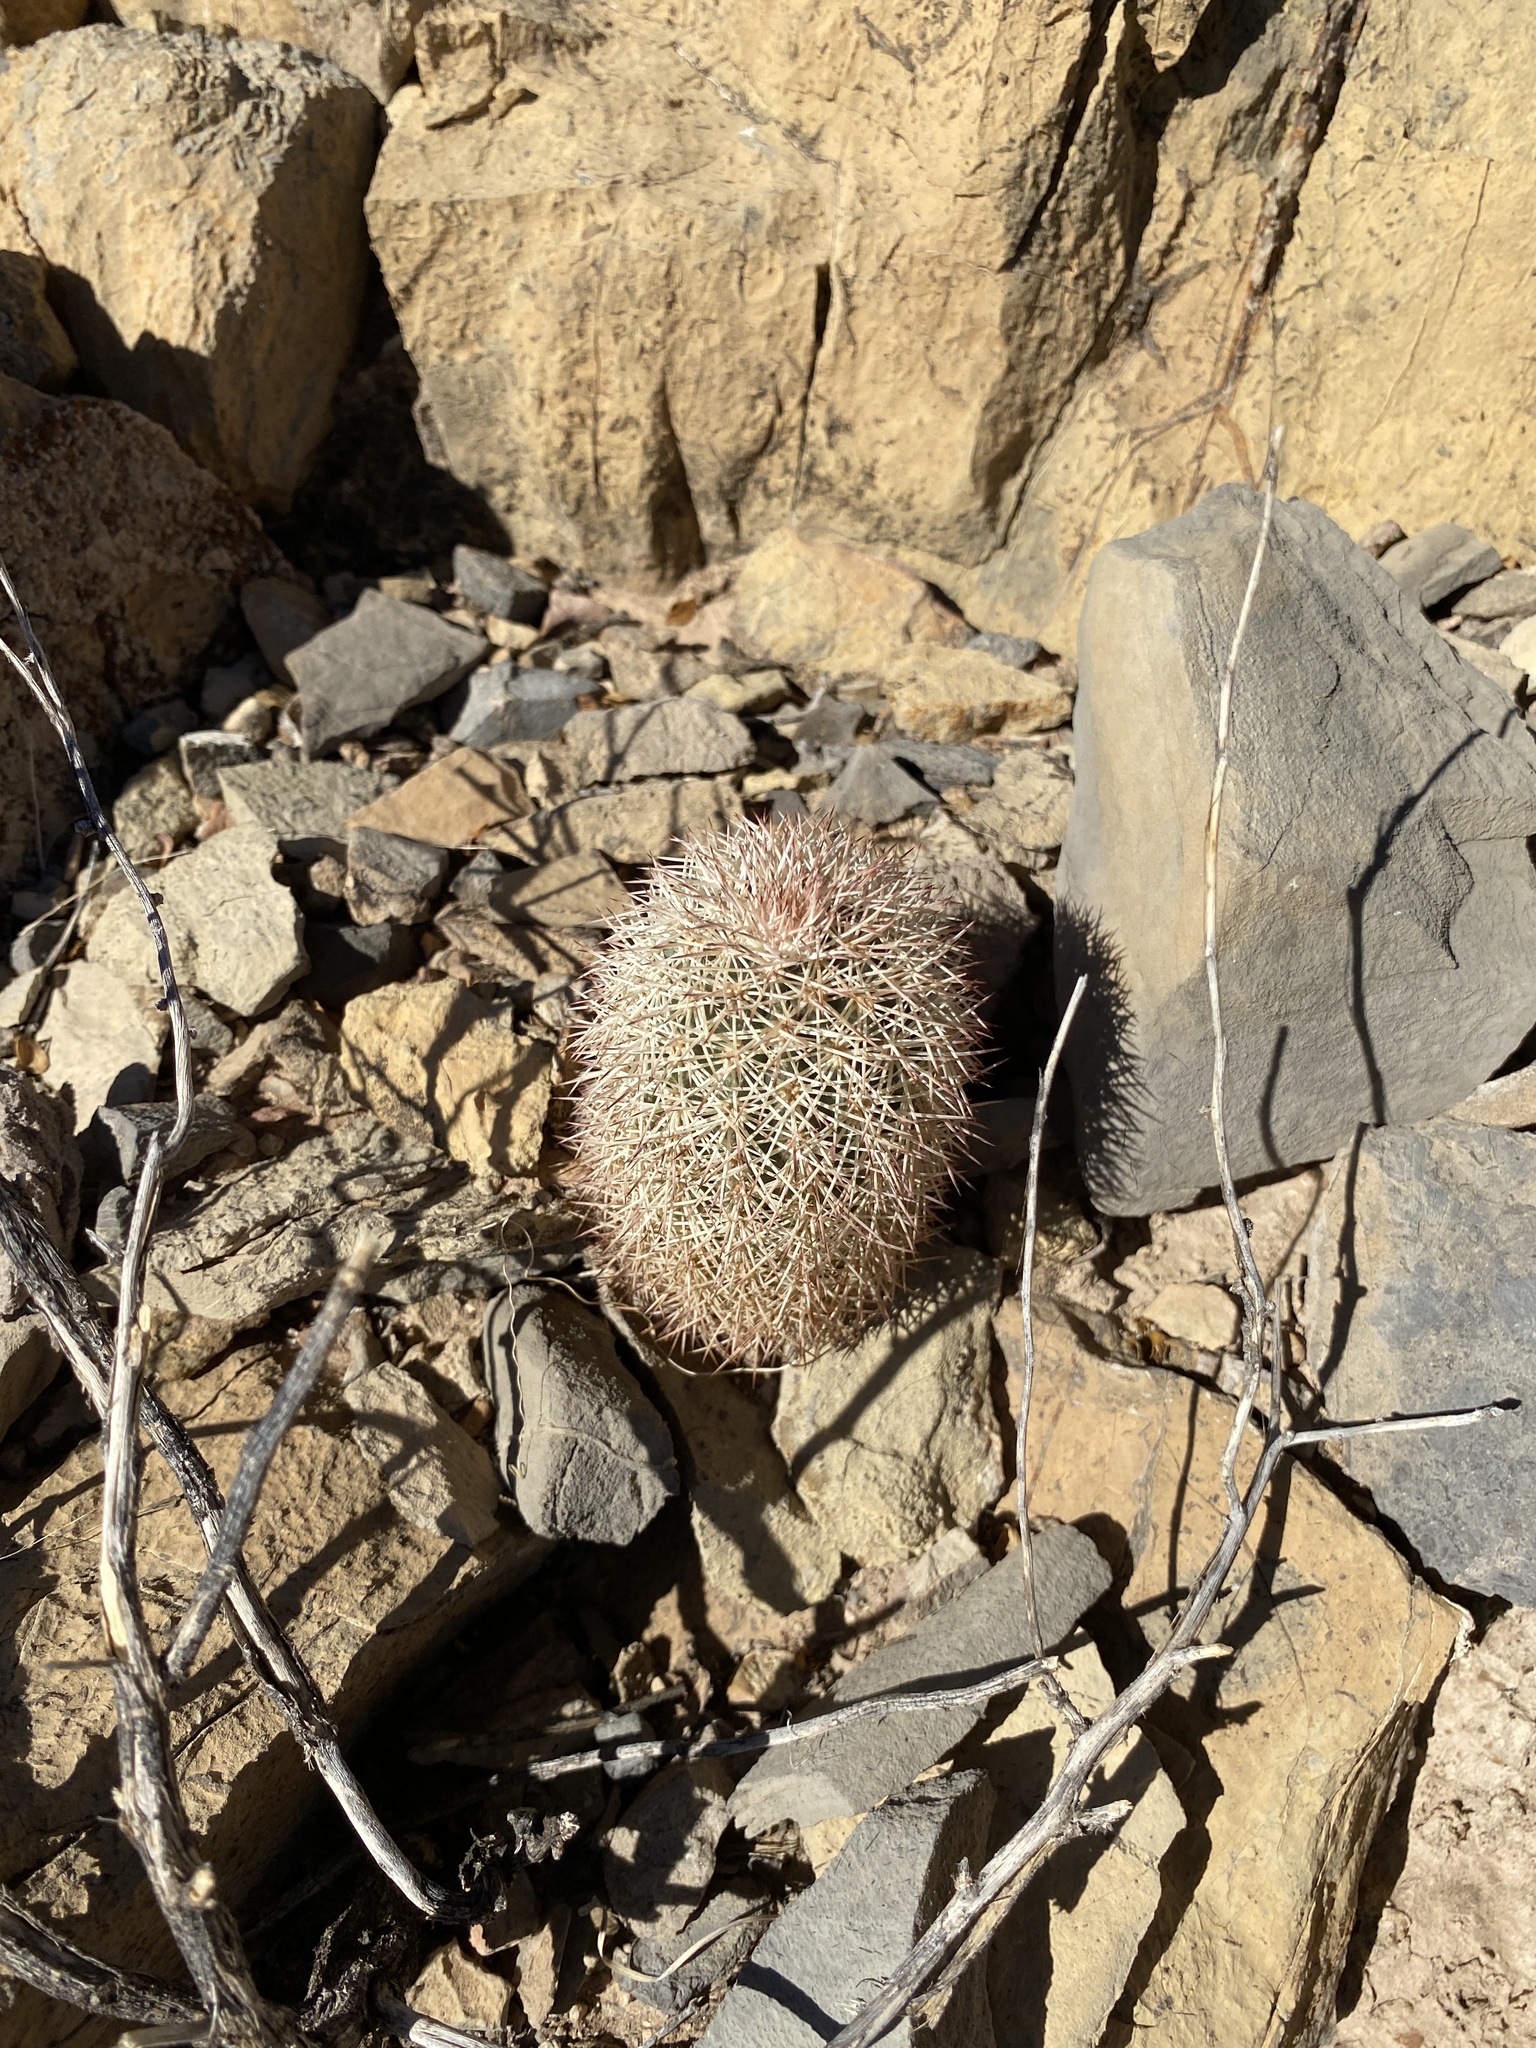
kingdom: Plantae
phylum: Tracheophyta
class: Magnoliopsida
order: Caryophyllales
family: Cactaceae
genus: Echinocereus
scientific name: Echinocereus dasyacanthus
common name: Spiny hedgehog cactus
